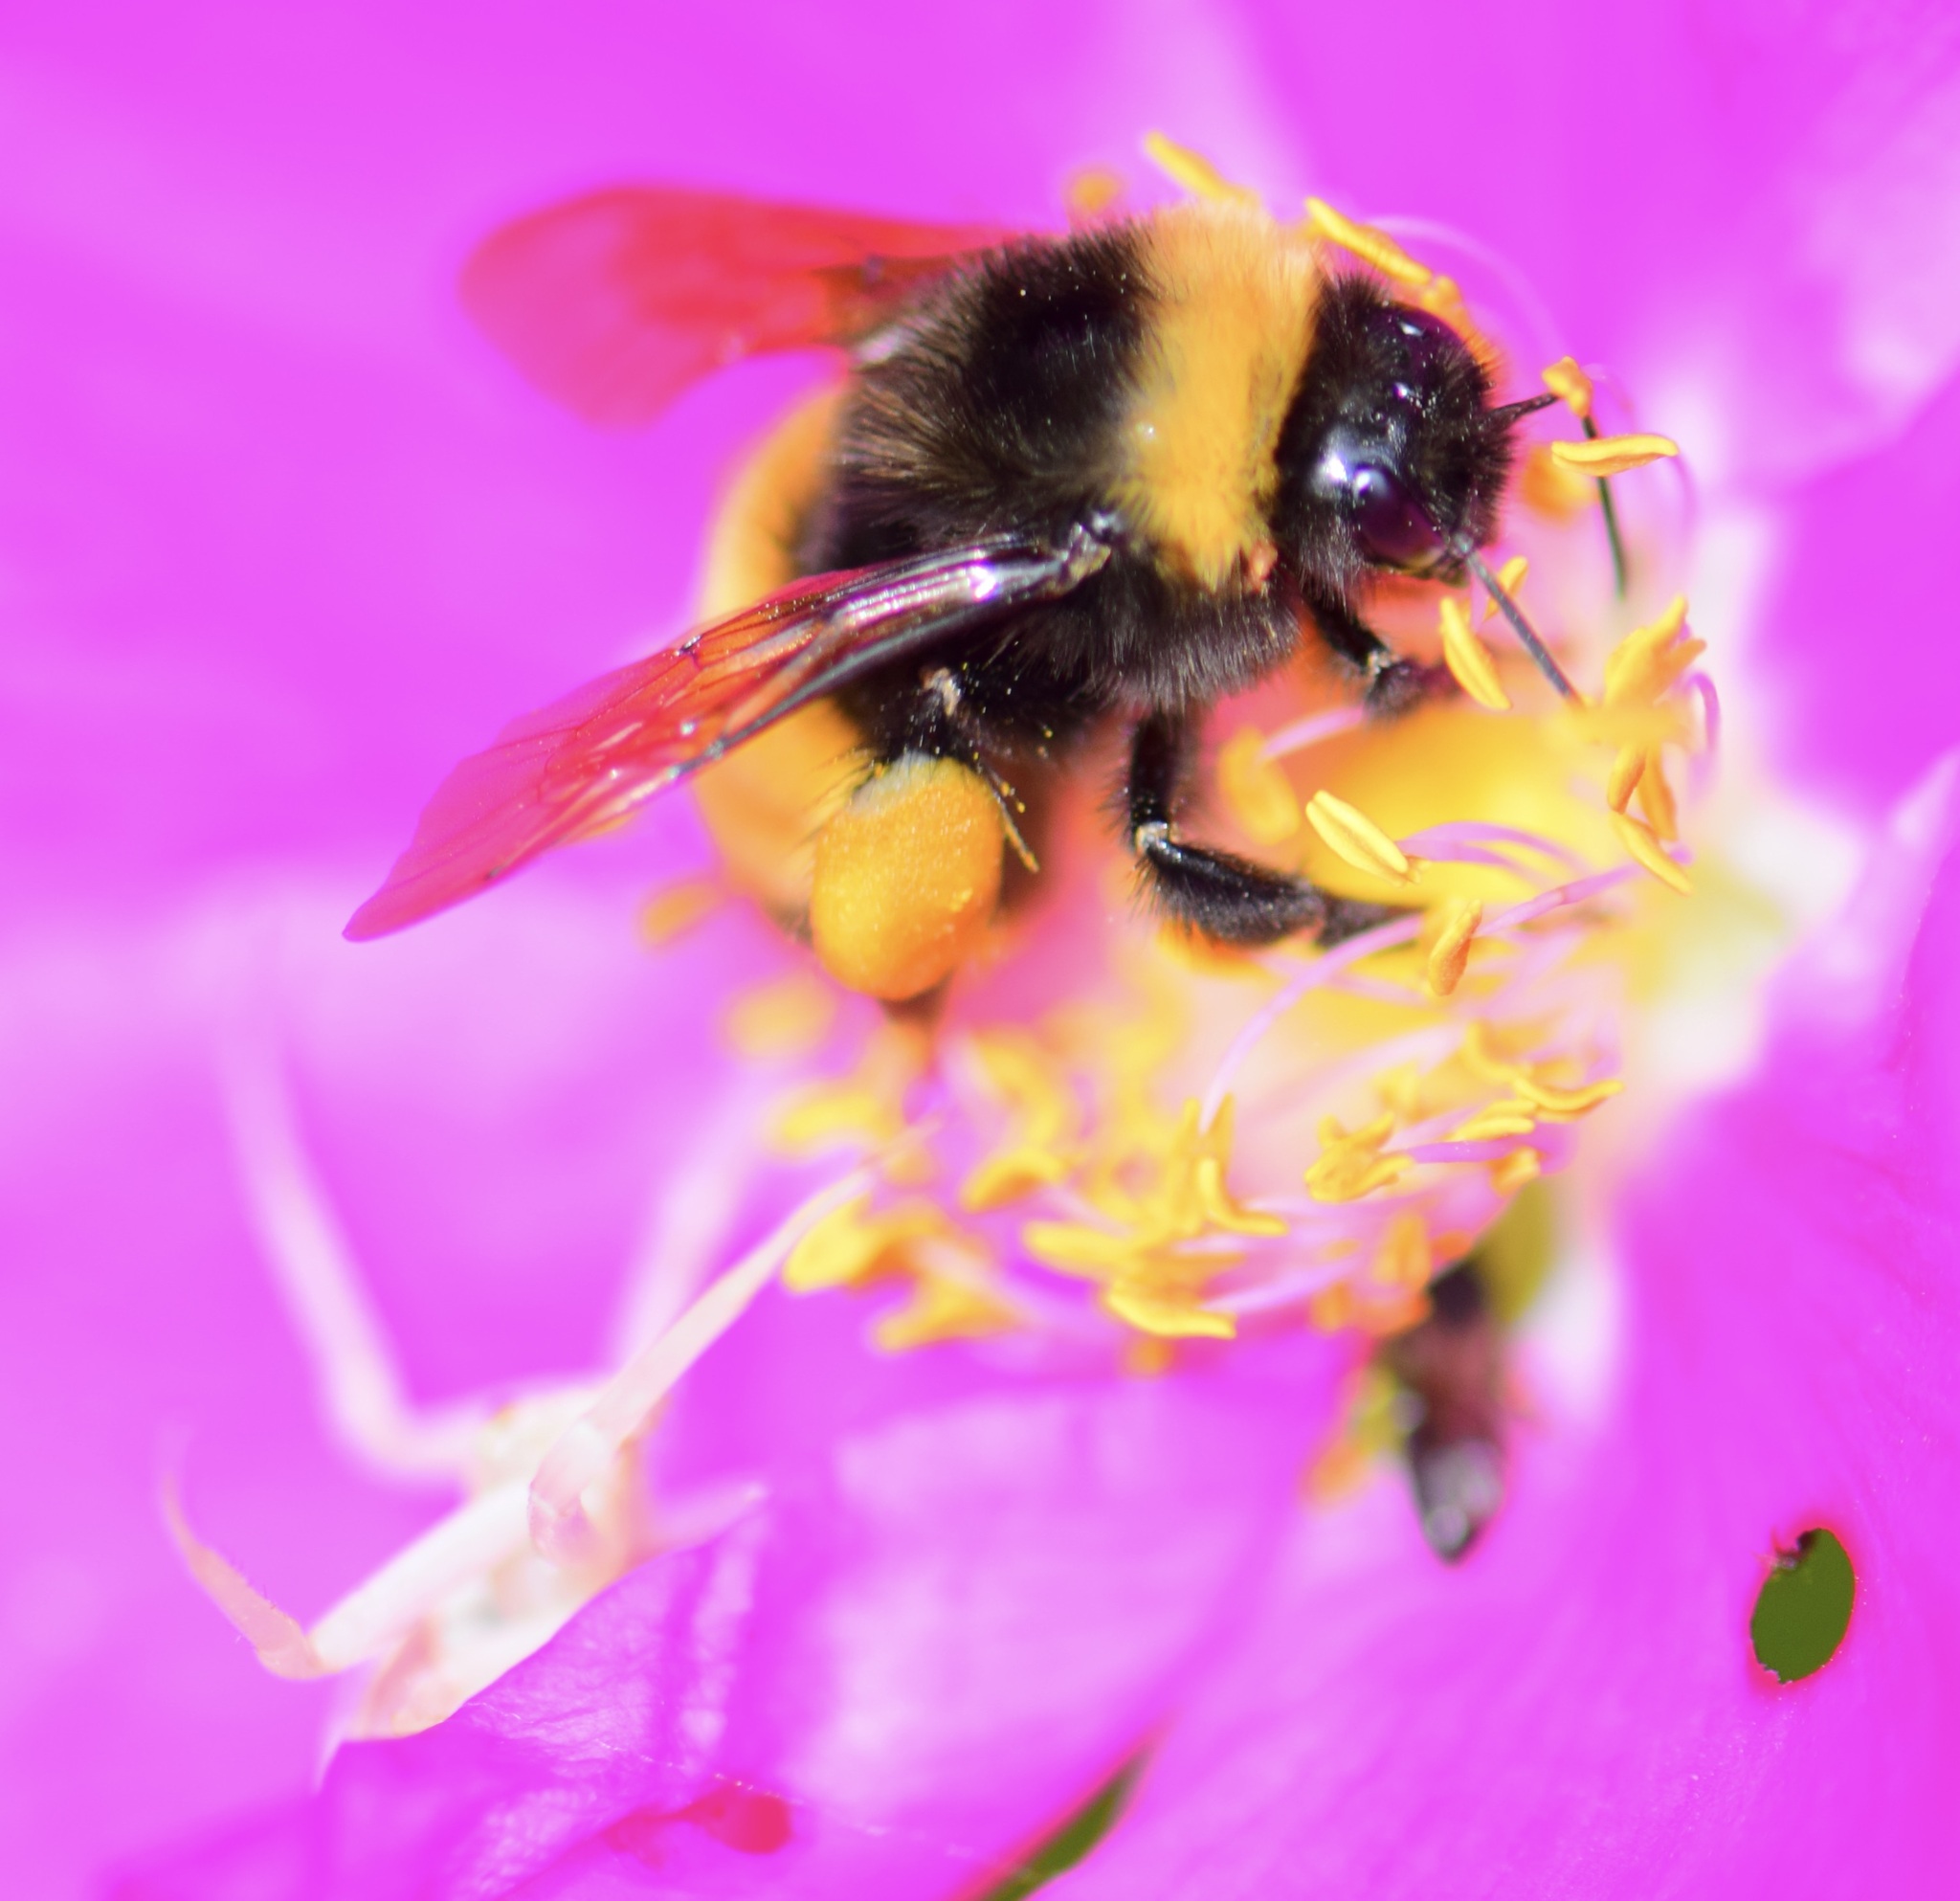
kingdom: Animalia
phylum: Arthropoda
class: Insecta
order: Hymenoptera
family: Apidae
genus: Bombus
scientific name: Bombus terricola
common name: Yellow-banded bumble bee
